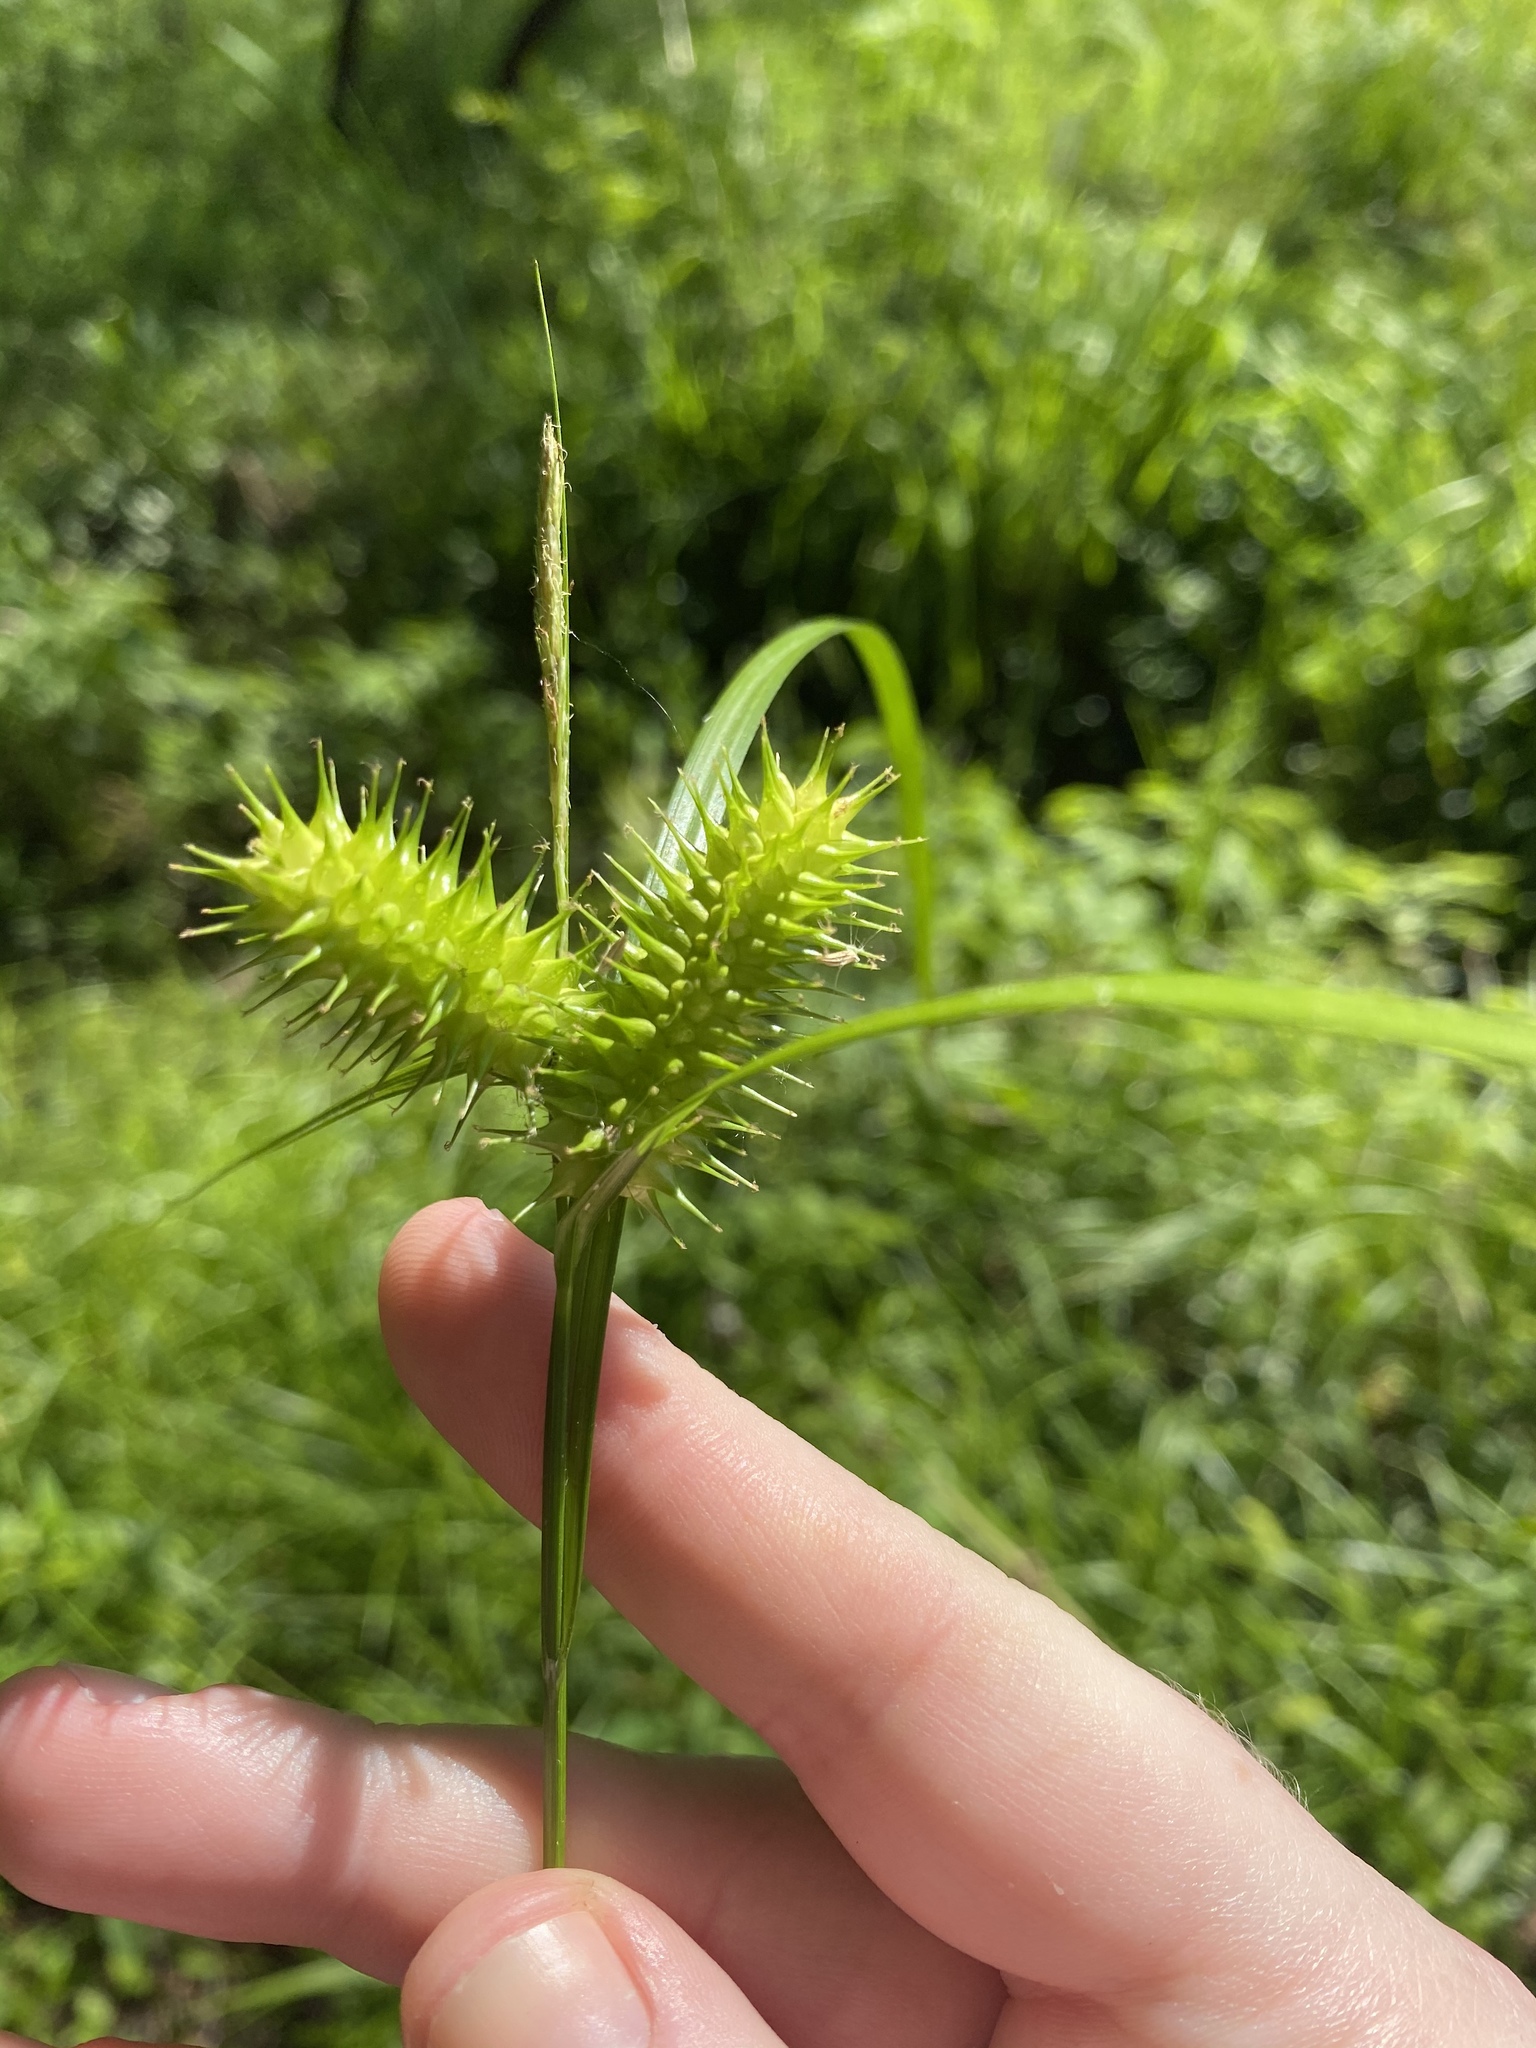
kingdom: Plantae
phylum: Tracheophyta
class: Liliopsida
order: Poales
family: Cyperaceae
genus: Carex
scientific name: Carex lurida
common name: Sallow sedge
